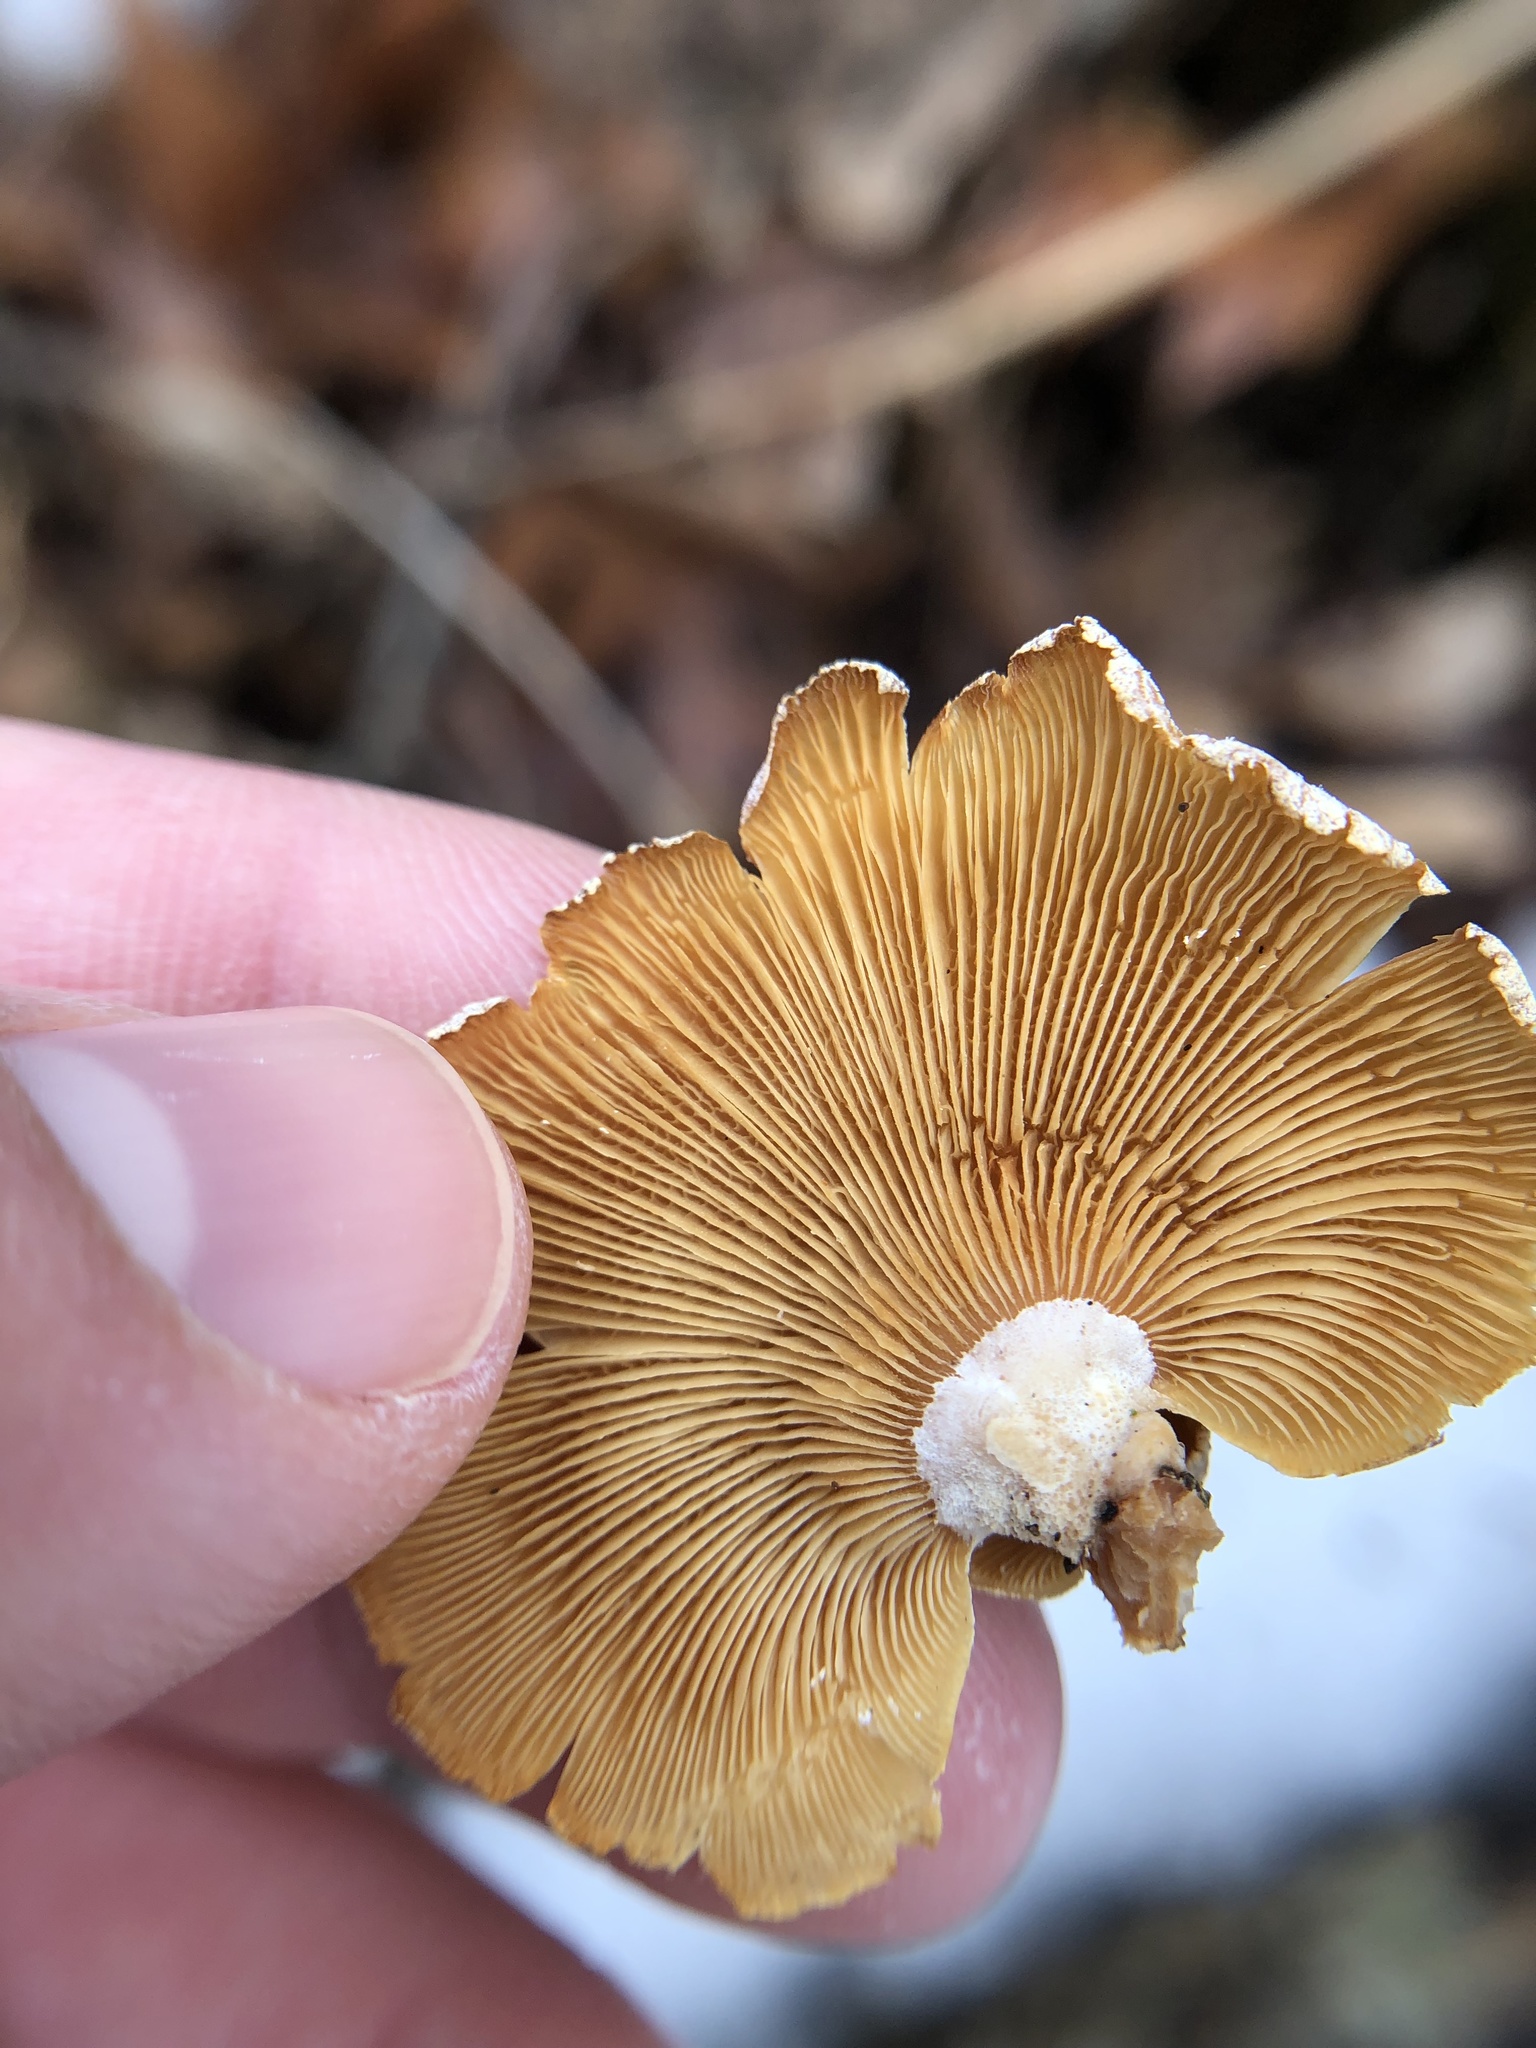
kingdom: Fungi
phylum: Basidiomycota
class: Agaricomycetes
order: Agaricales
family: Mycenaceae
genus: Panellus
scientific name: Panellus stipticus
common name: Bitter oysterling
